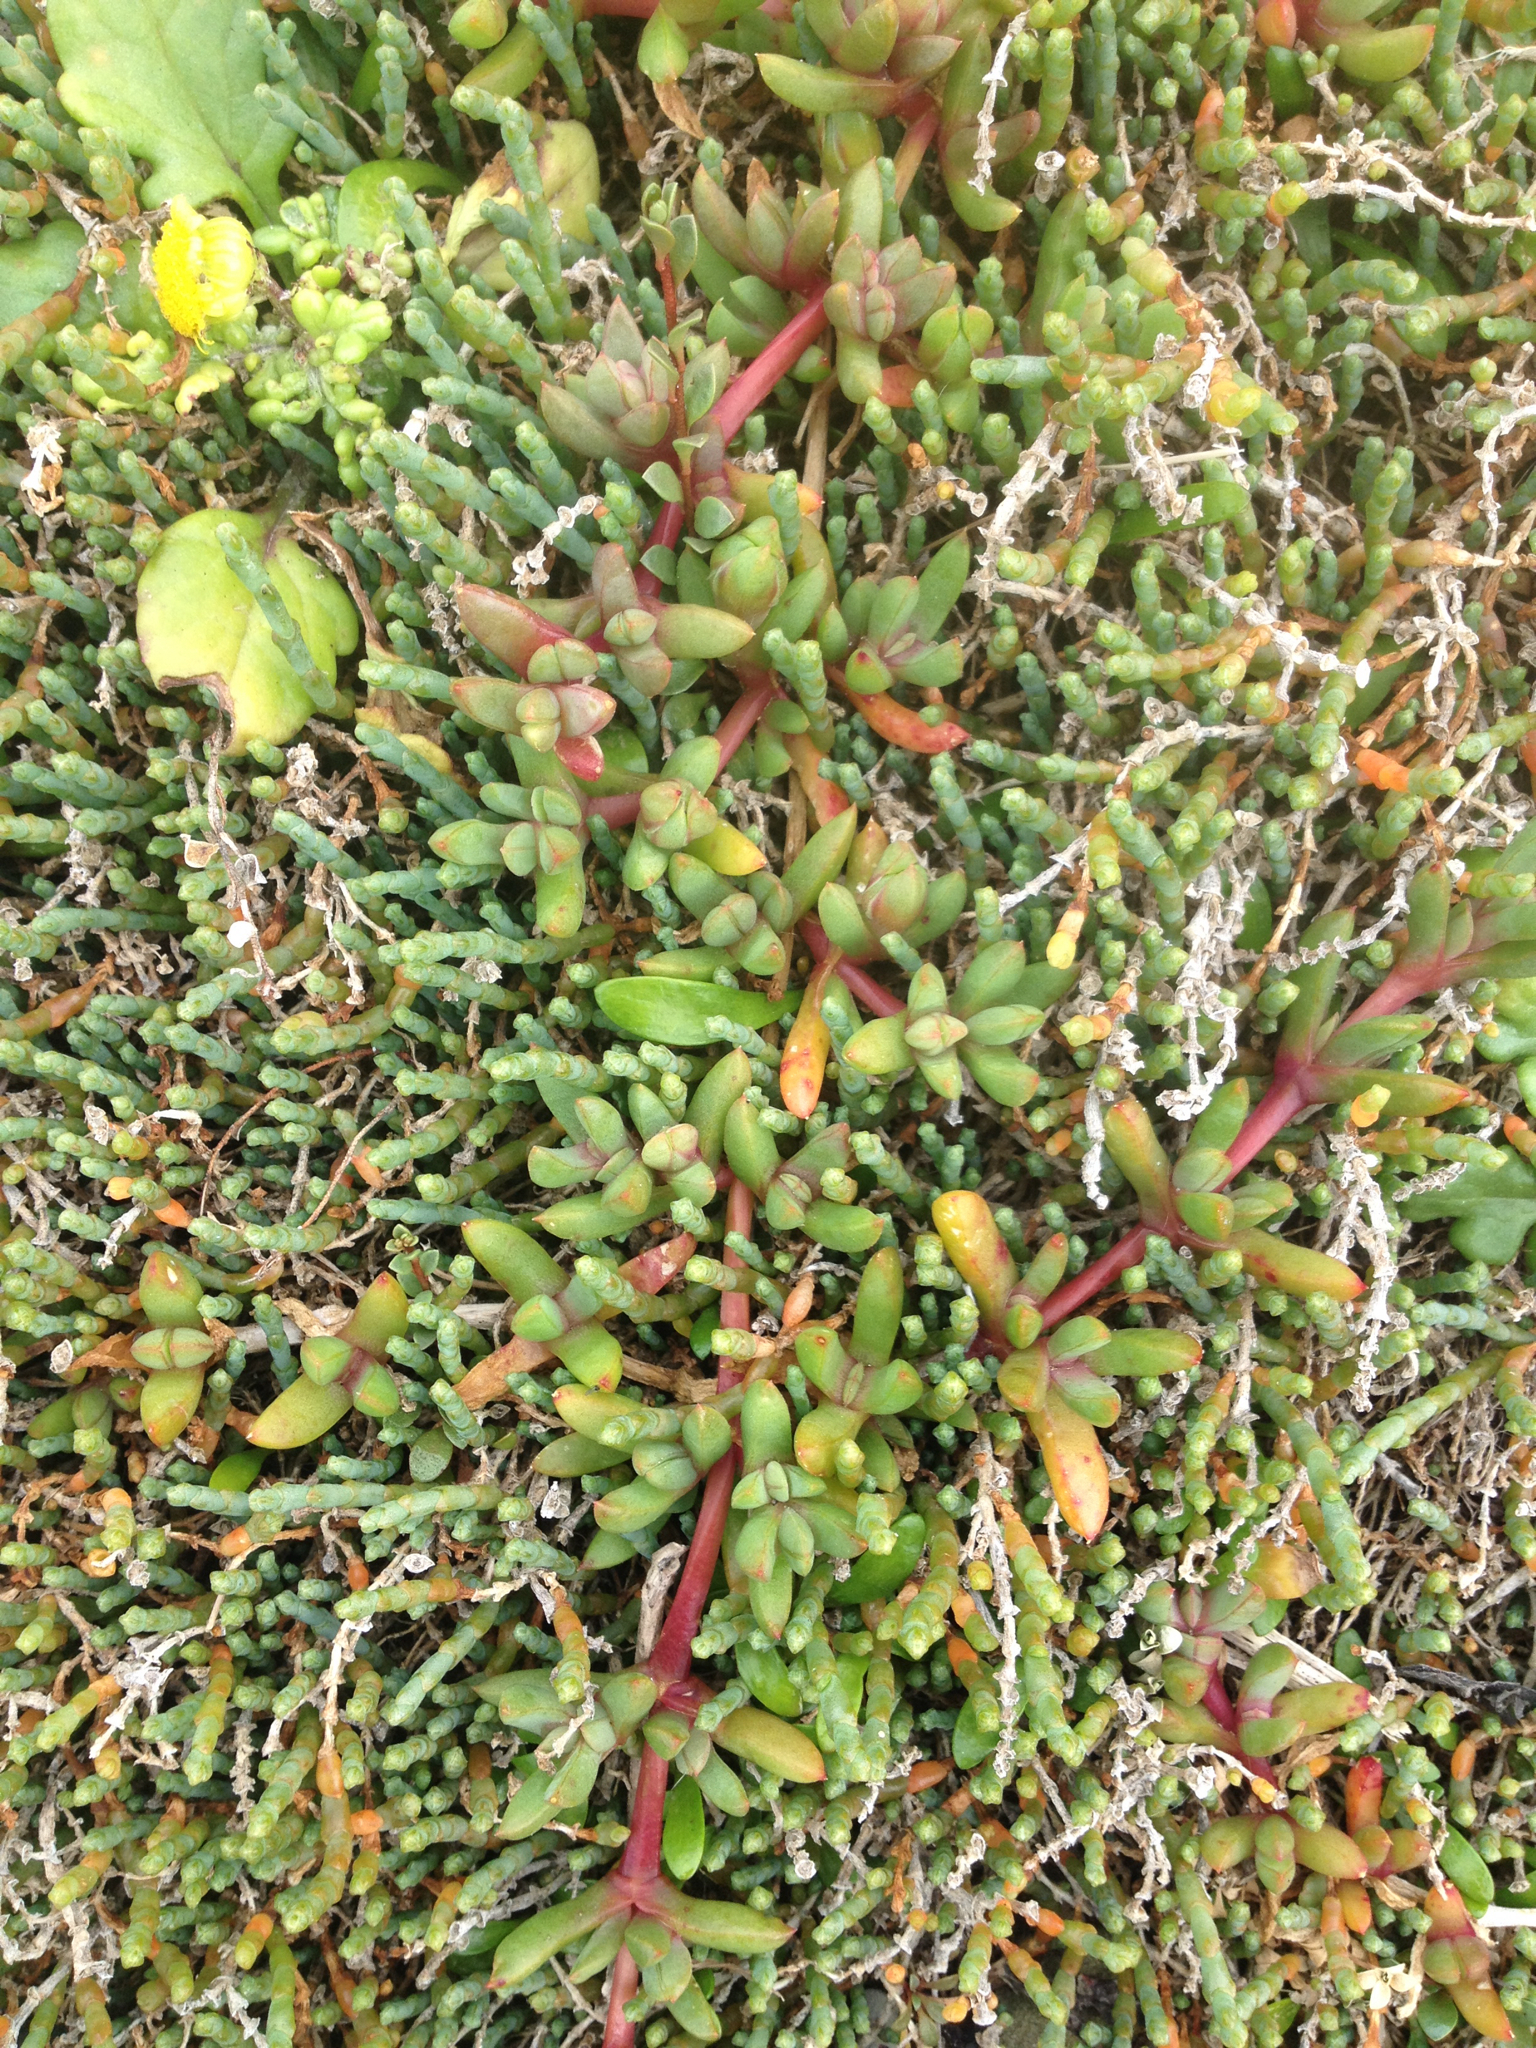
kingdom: Plantae
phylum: Tracheophyta
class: Magnoliopsida
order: Caryophyllales
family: Aizoaceae
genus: Disphyma
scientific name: Disphyma australe
